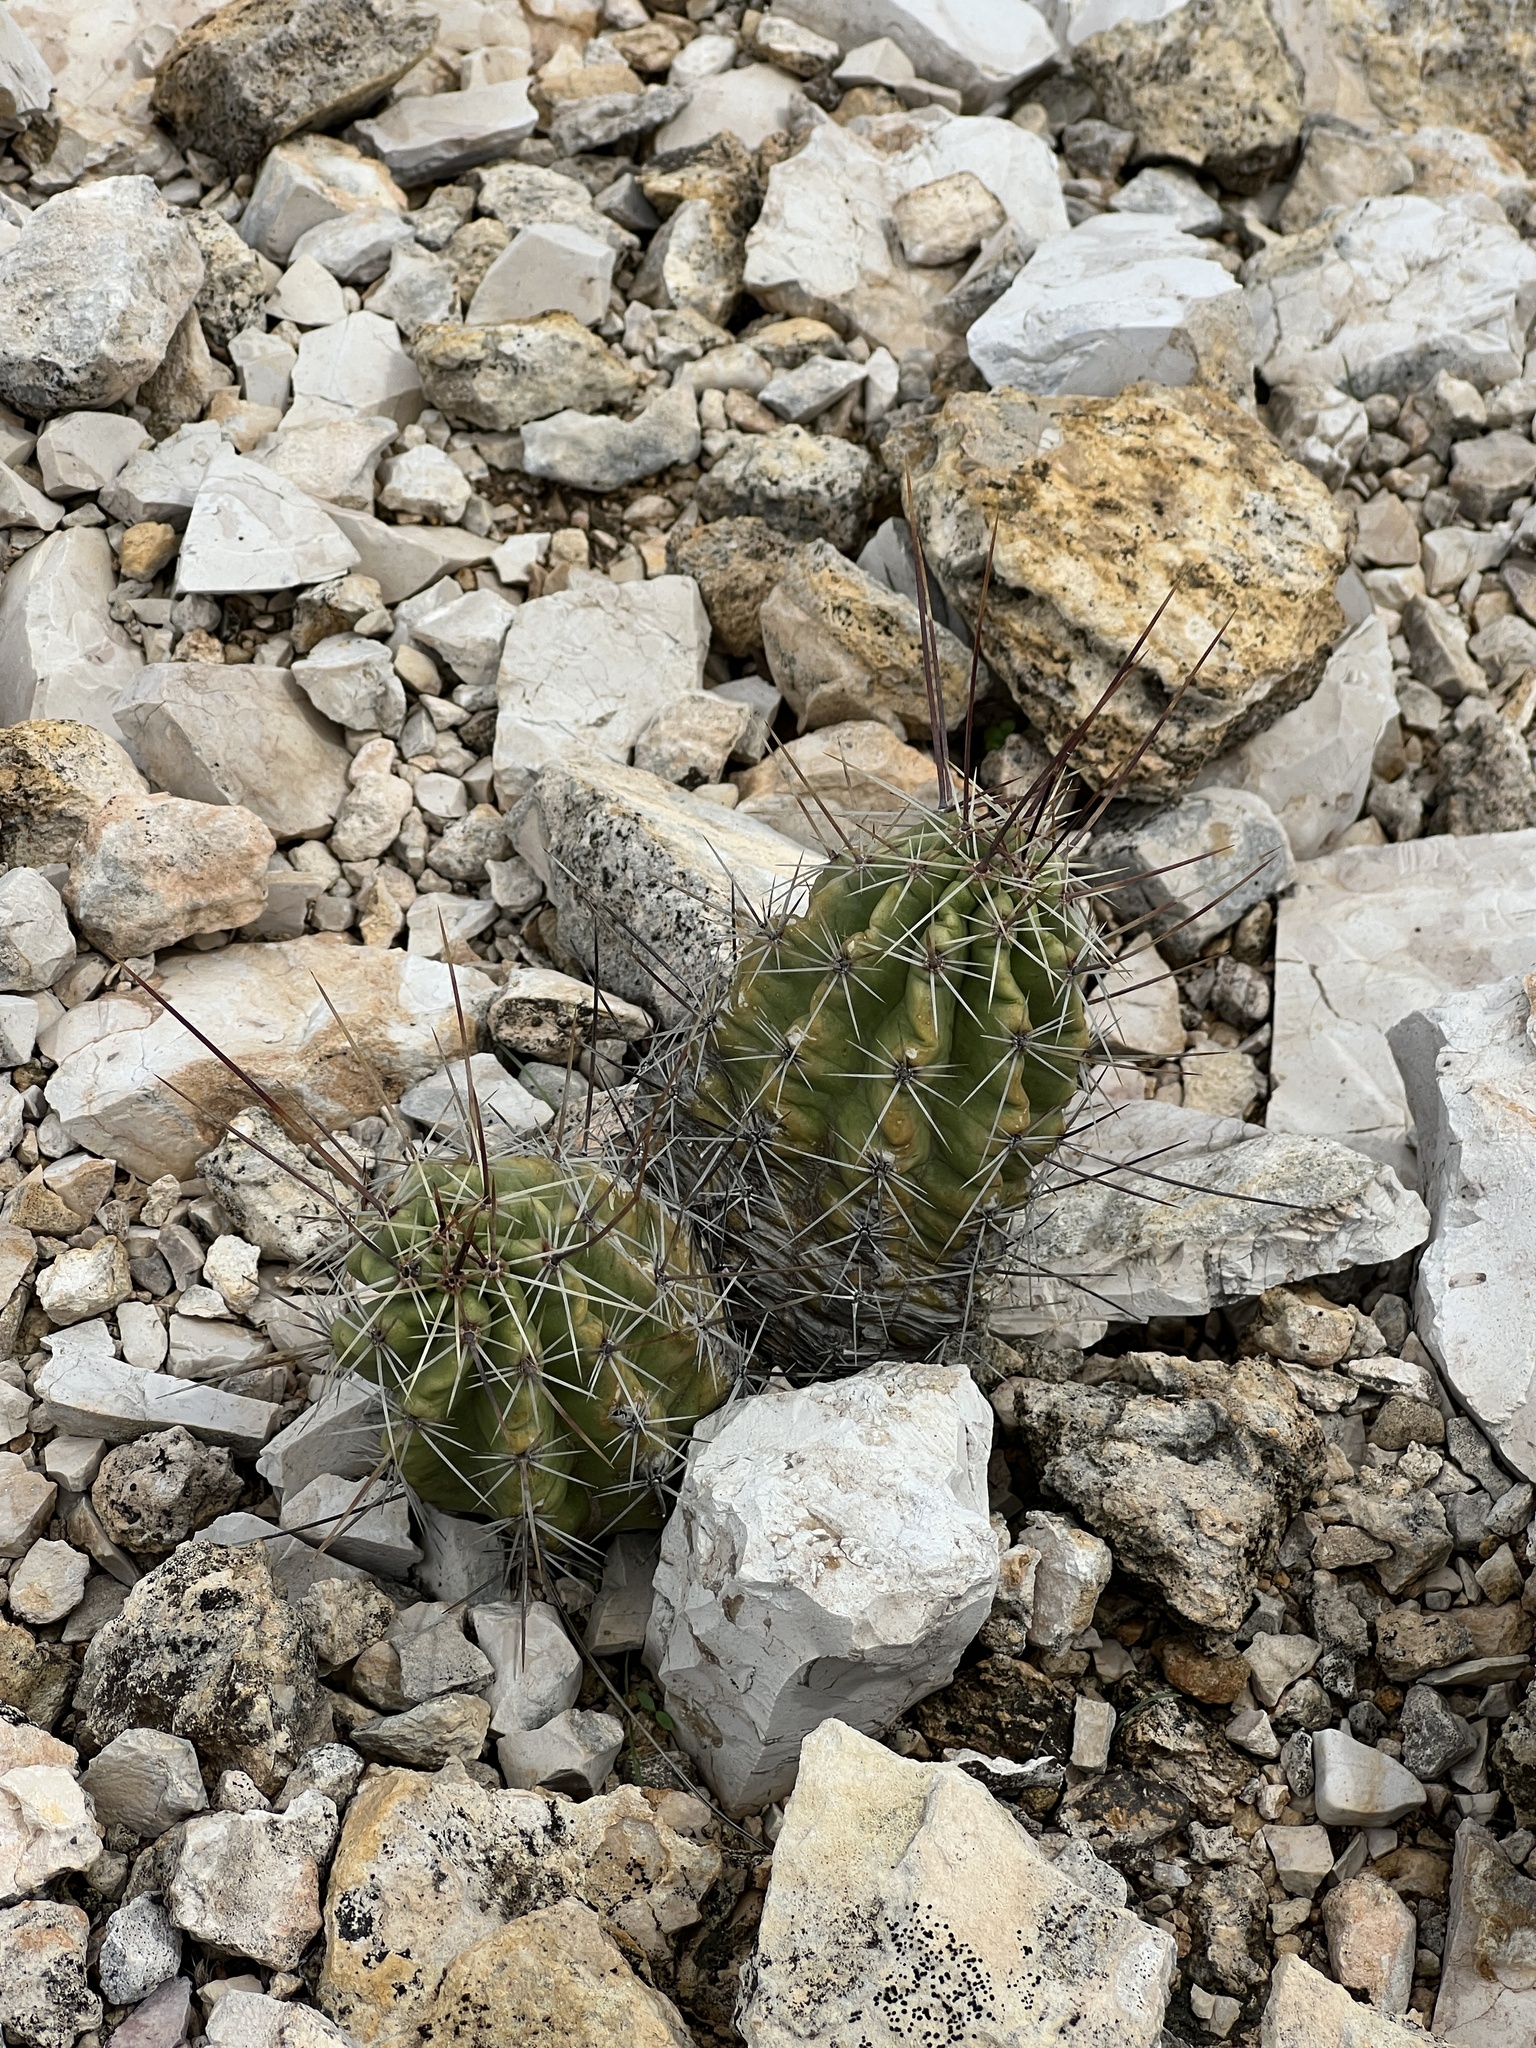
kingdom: Plantae
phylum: Tracheophyta
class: Magnoliopsida
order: Caryophyllales
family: Cactaceae
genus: Echinocereus
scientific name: Echinocereus enneacanthus
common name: Pitaya
